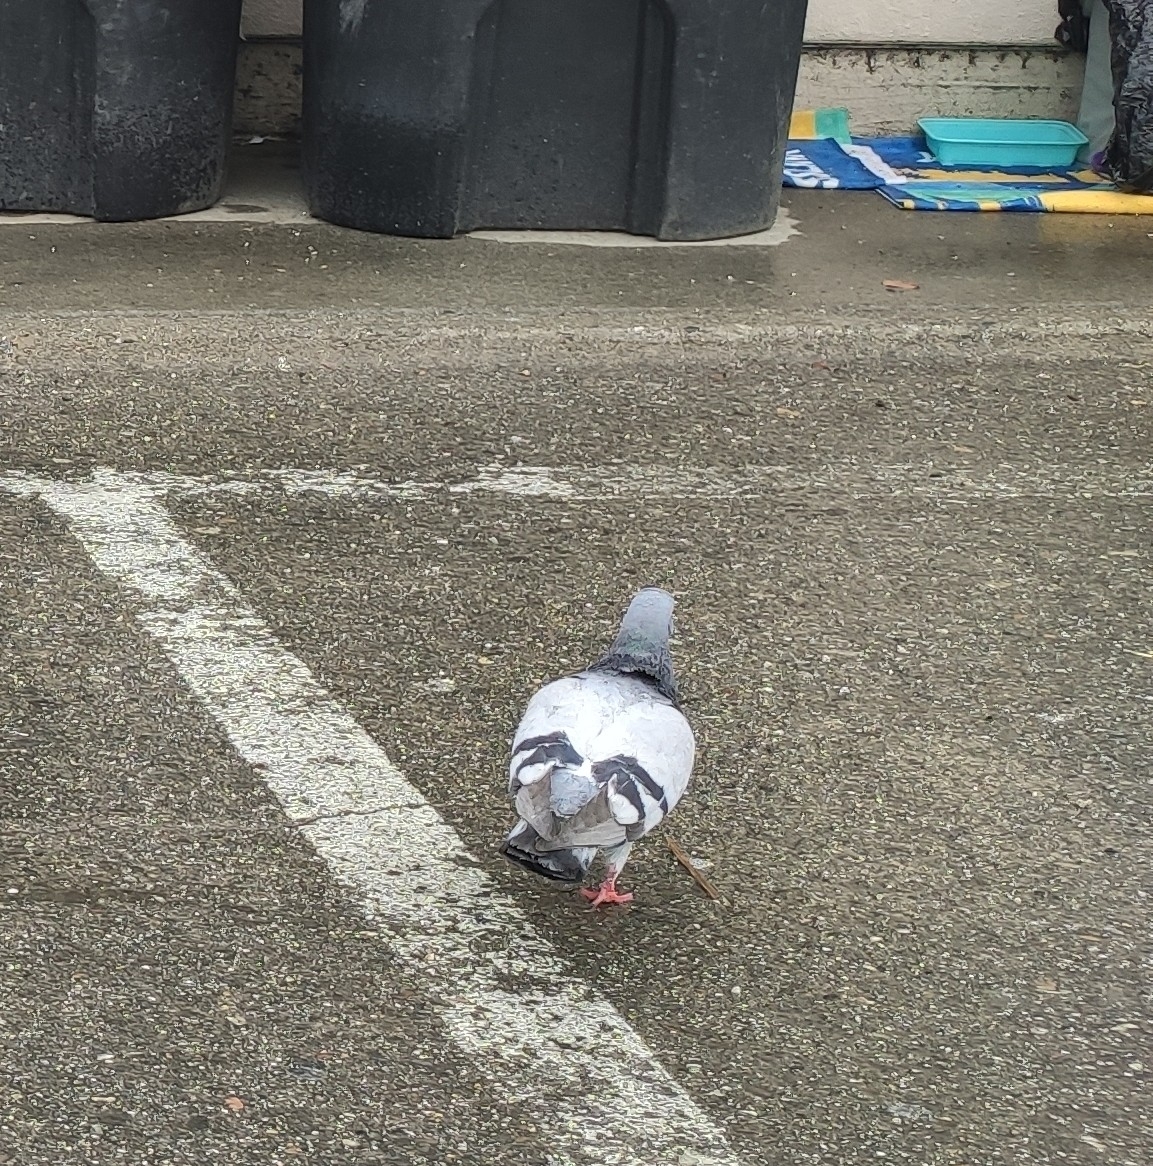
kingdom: Animalia
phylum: Chordata
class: Aves
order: Columbiformes
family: Columbidae
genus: Columba
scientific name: Columba livia
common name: Rock pigeon
